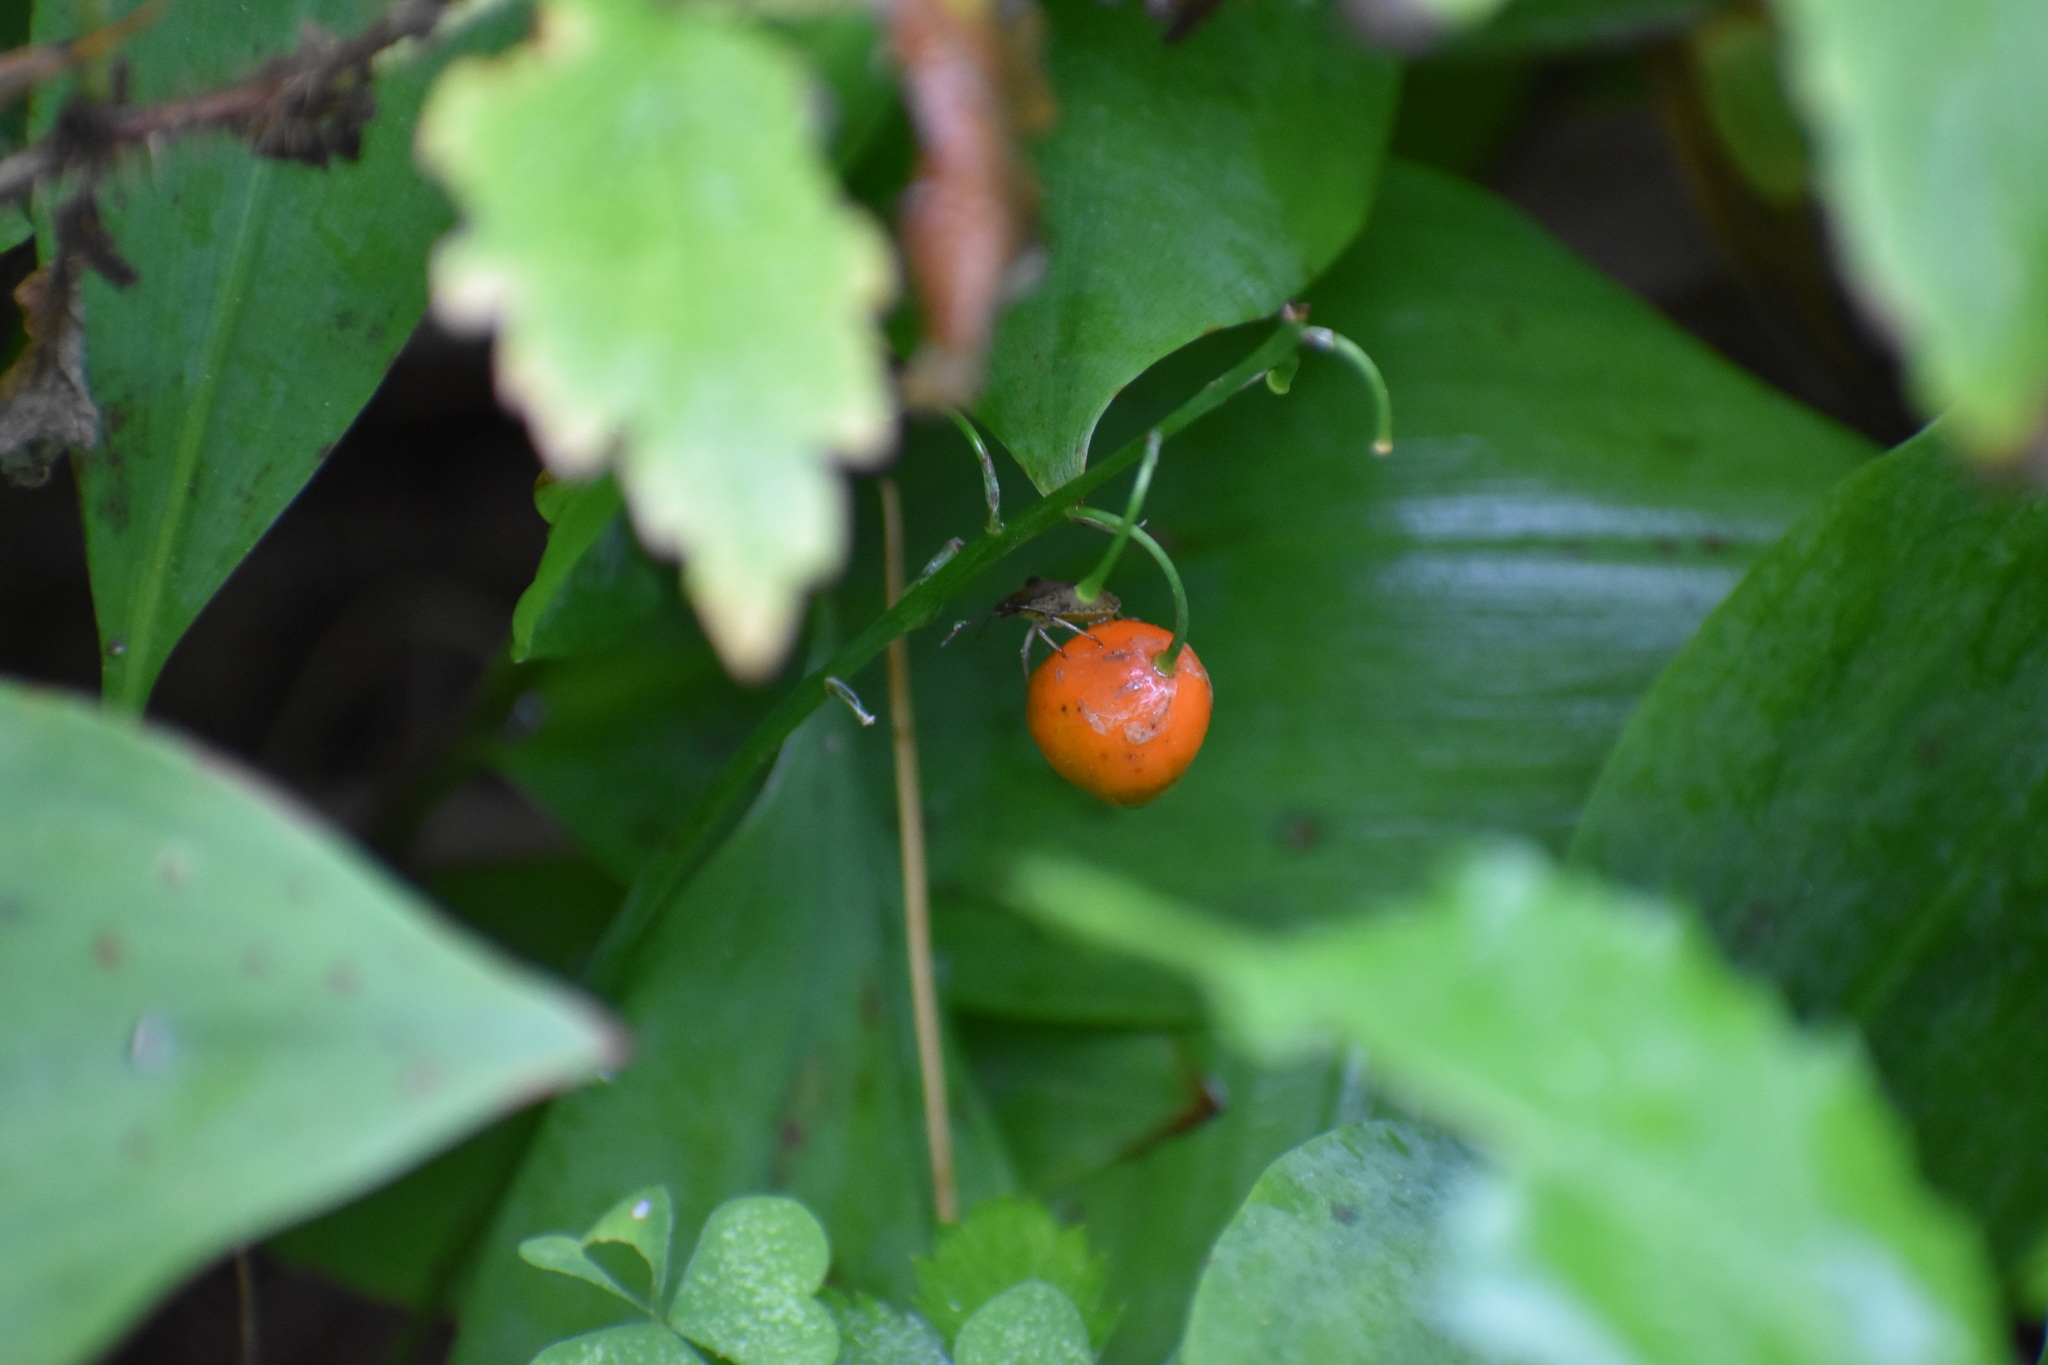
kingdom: Plantae
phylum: Tracheophyta
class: Liliopsida
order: Asparagales
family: Asparagaceae
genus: Convallaria
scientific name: Convallaria majalis
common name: Lily-of-the-valley
